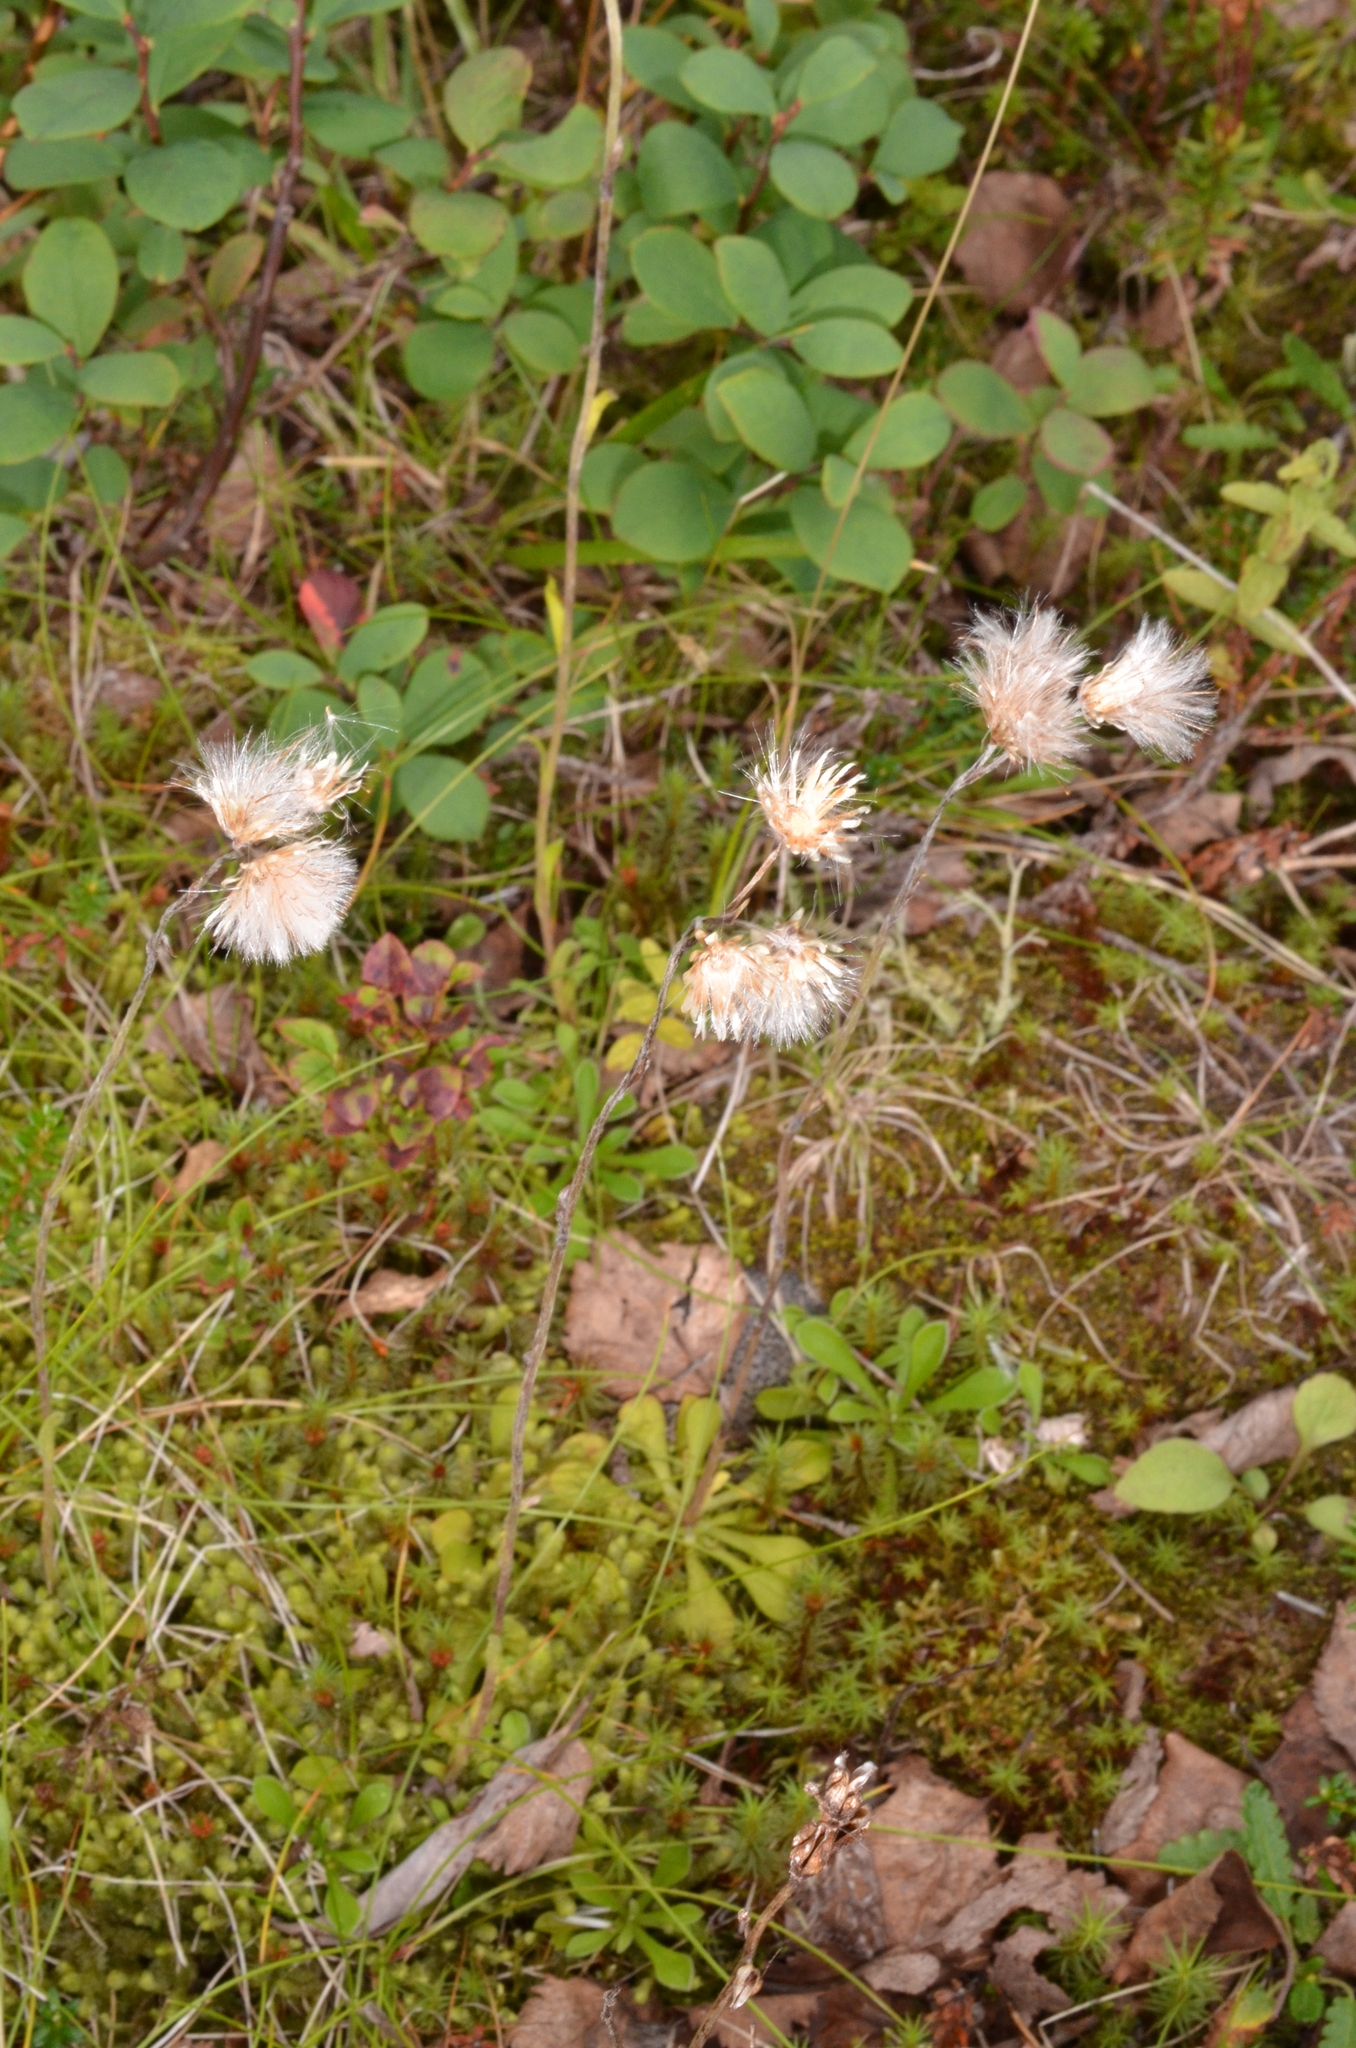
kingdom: Plantae
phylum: Tracheophyta
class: Magnoliopsida
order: Asterales
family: Asteraceae
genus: Antennaria
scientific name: Antennaria dioica
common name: Mountain everlasting
